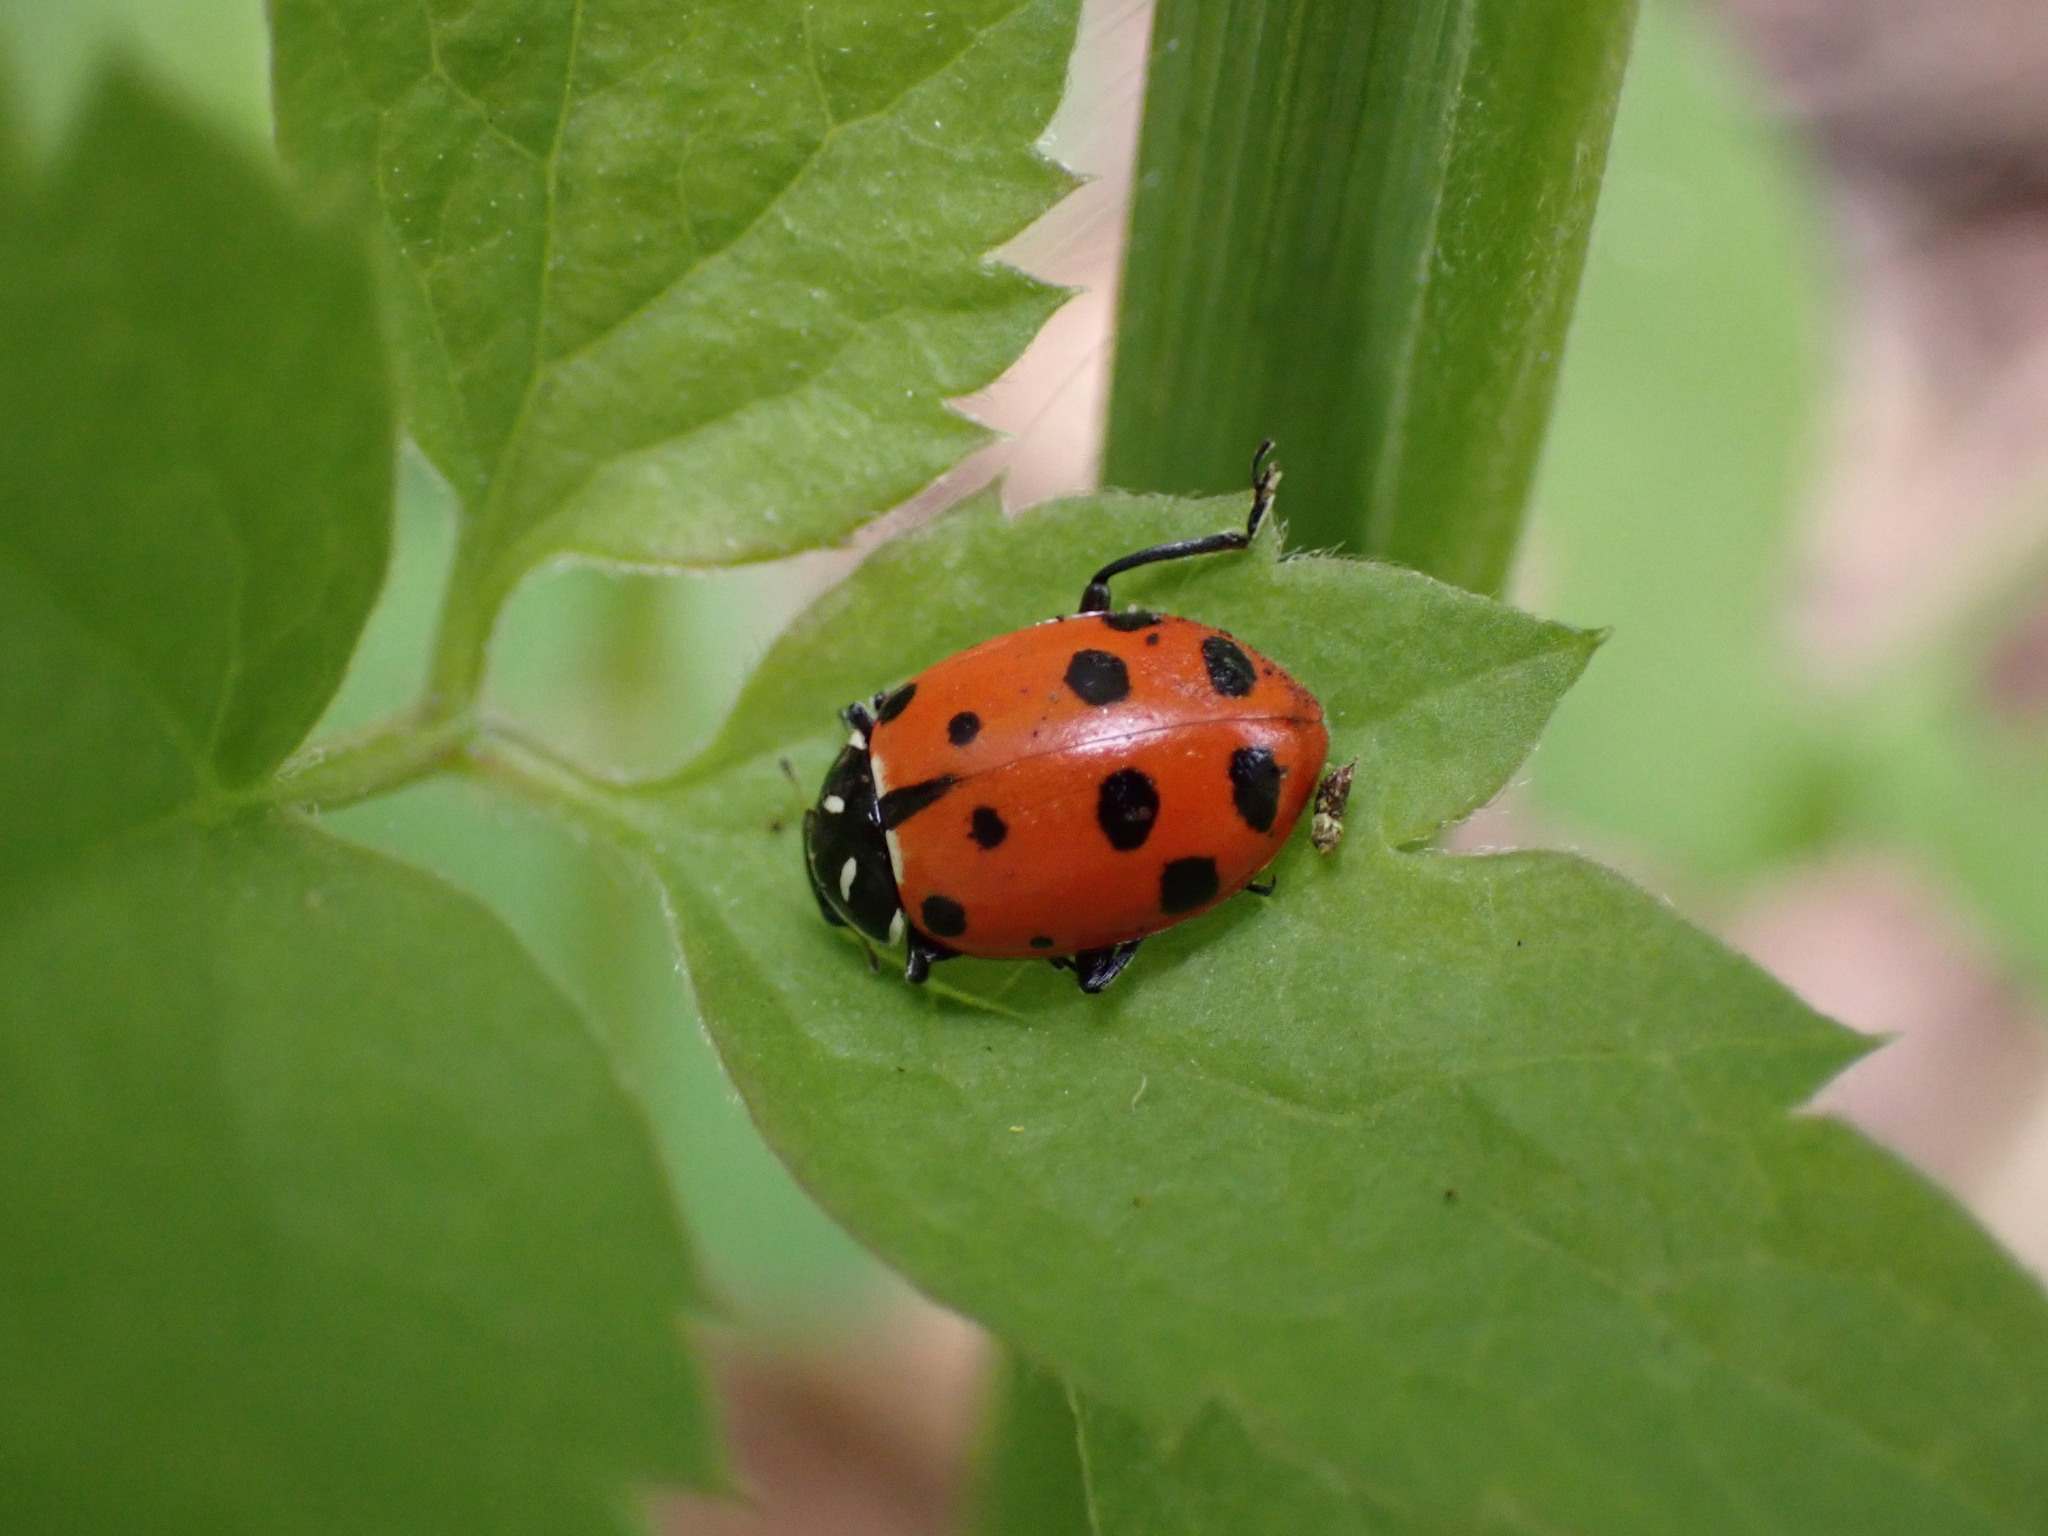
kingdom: Animalia
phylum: Arthropoda
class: Insecta
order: Coleoptera
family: Coccinellidae
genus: Hippodamia
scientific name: Hippodamia convergens
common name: Convergent lady beetle
